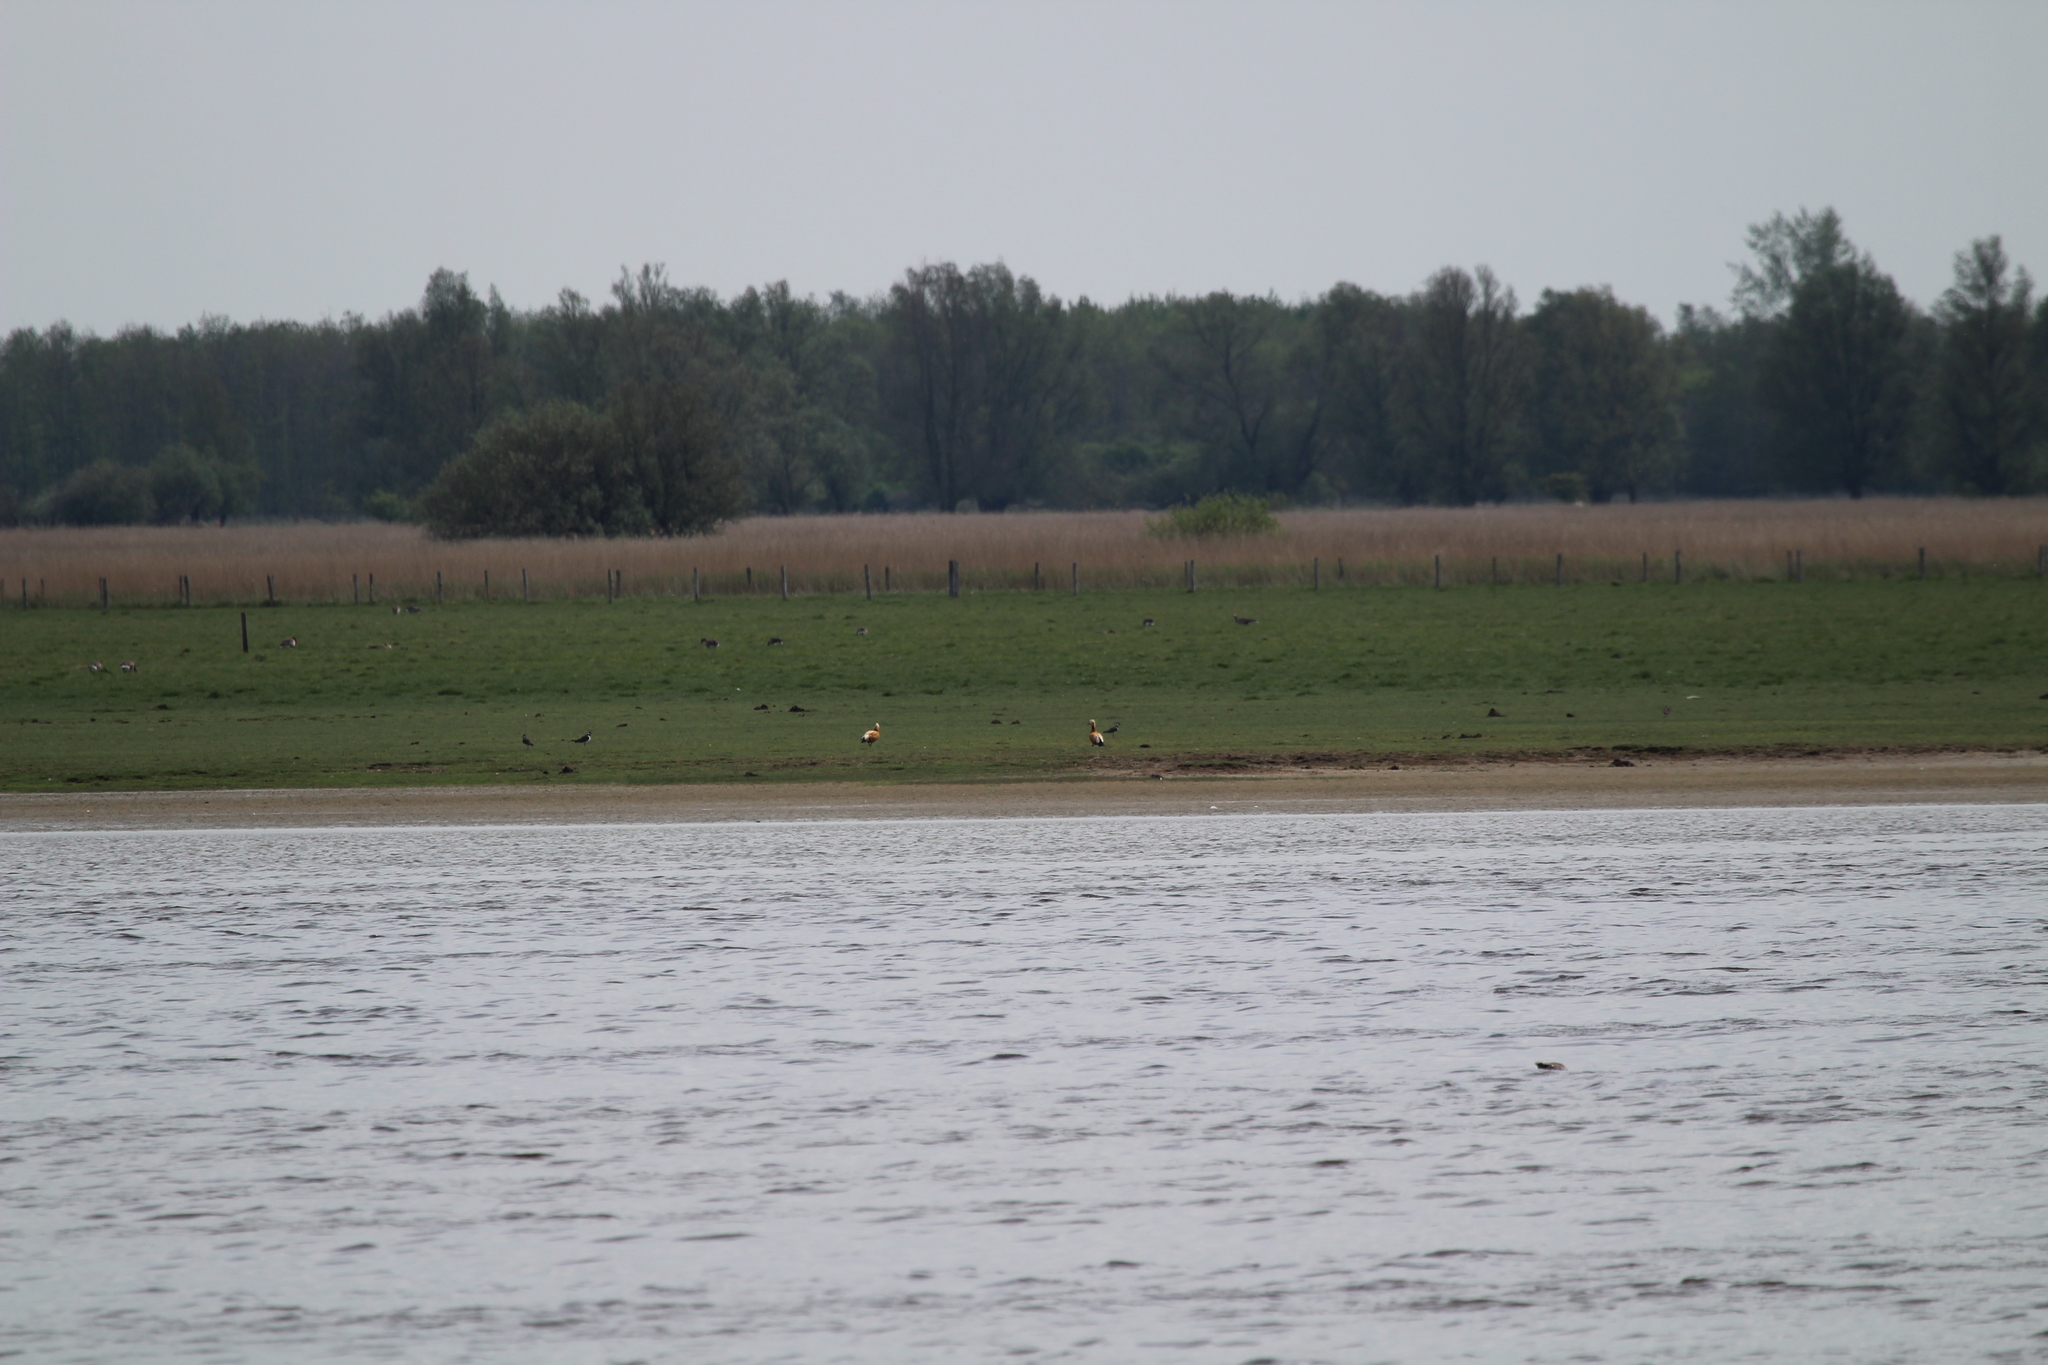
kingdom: Animalia
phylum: Chordata
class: Aves
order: Anseriformes
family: Anatidae
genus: Tadorna
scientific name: Tadorna ferruginea
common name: Ruddy shelduck
